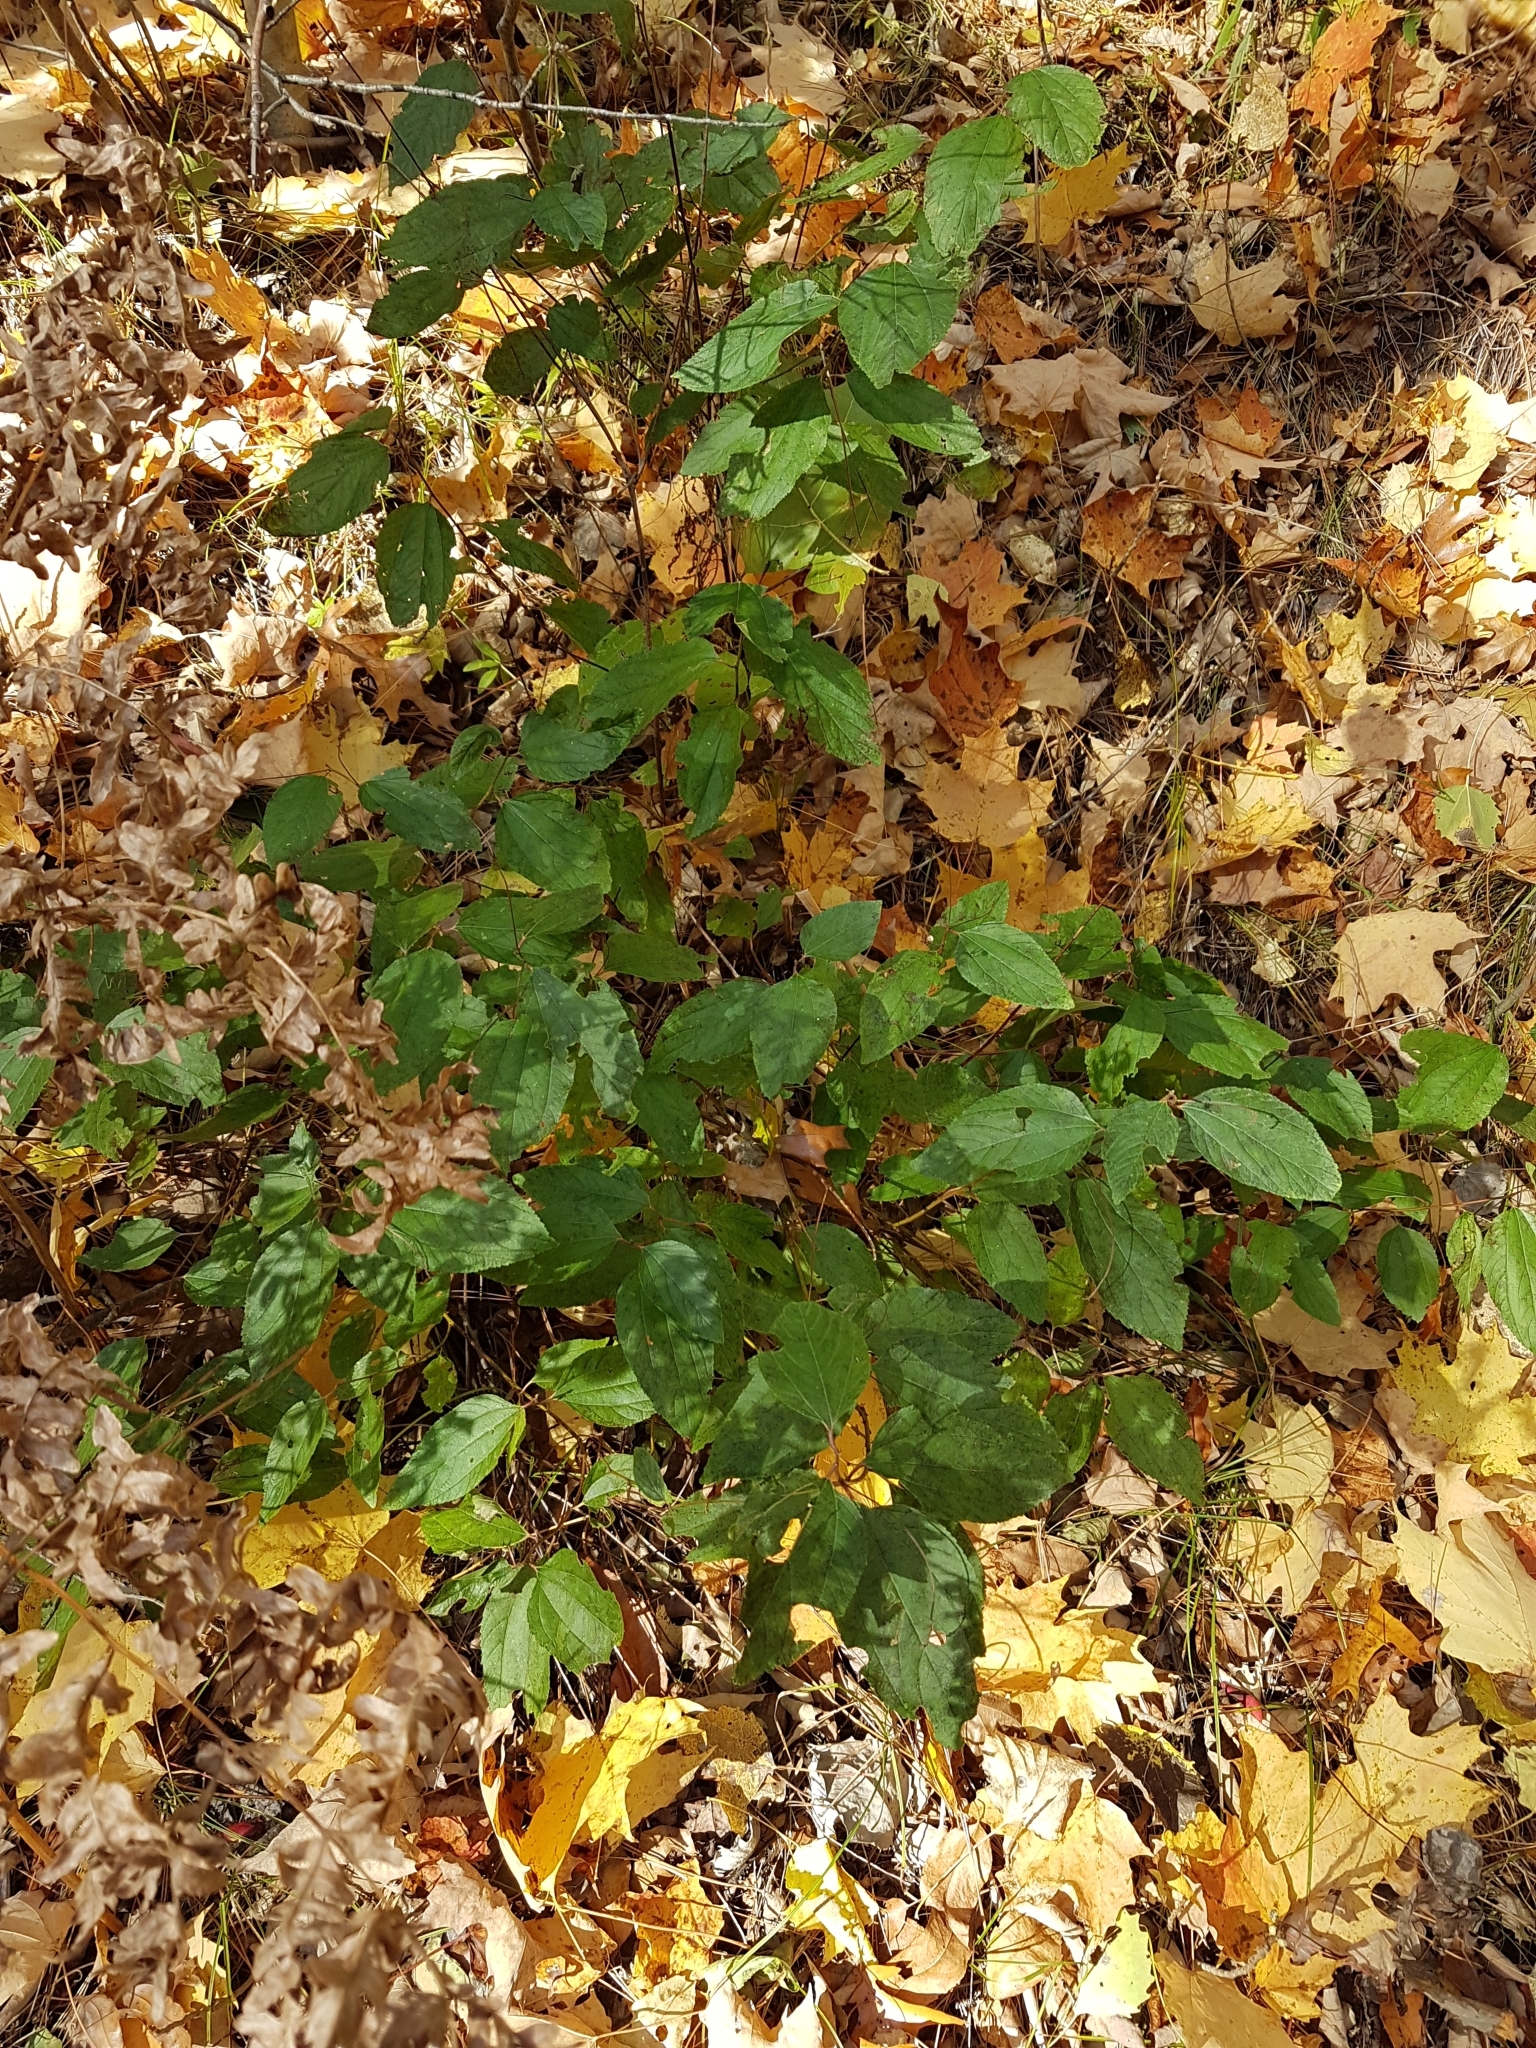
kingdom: Plantae
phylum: Tracheophyta
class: Magnoliopsida
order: Rosales
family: Rhamnaceae
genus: Ceanothus
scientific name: Ceanothus americanus
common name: Redroot
